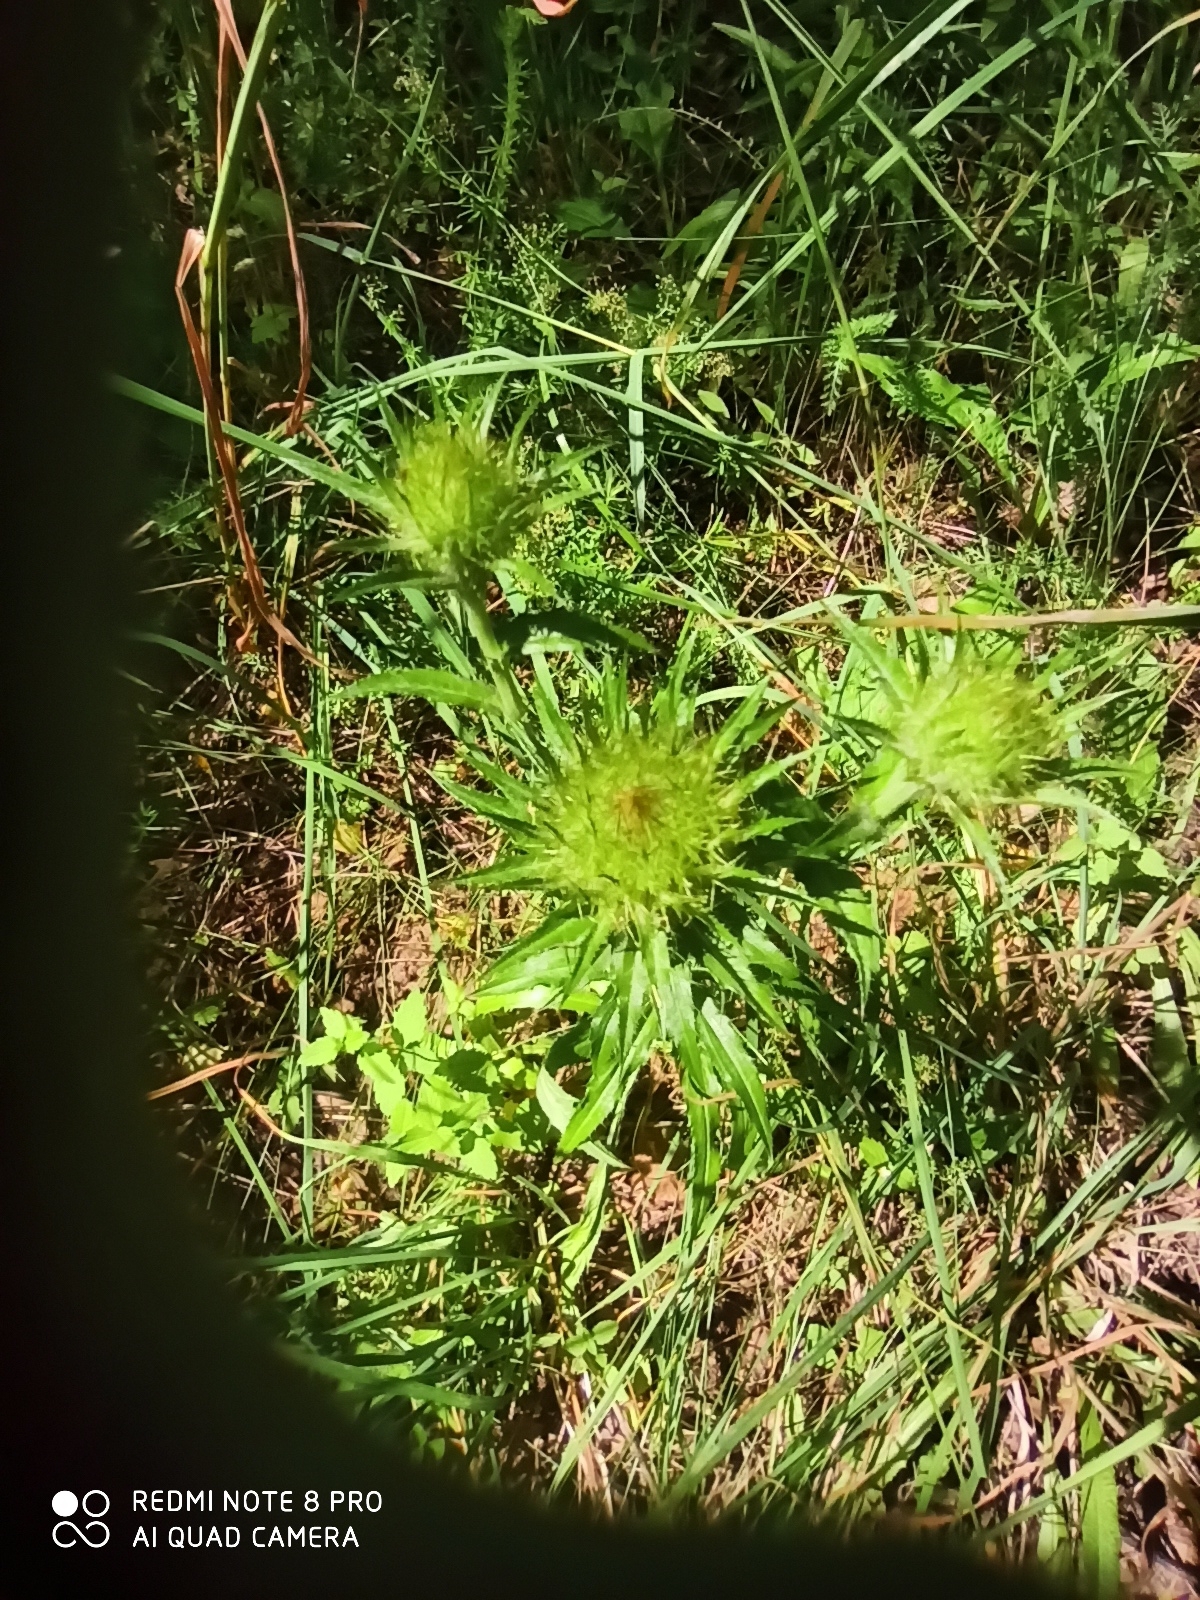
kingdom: Plantae
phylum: Tracheophyta
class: Magnoliopsida
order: Asterales
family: Asteraceae
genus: Carlina
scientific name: Carlina biebersteinii
